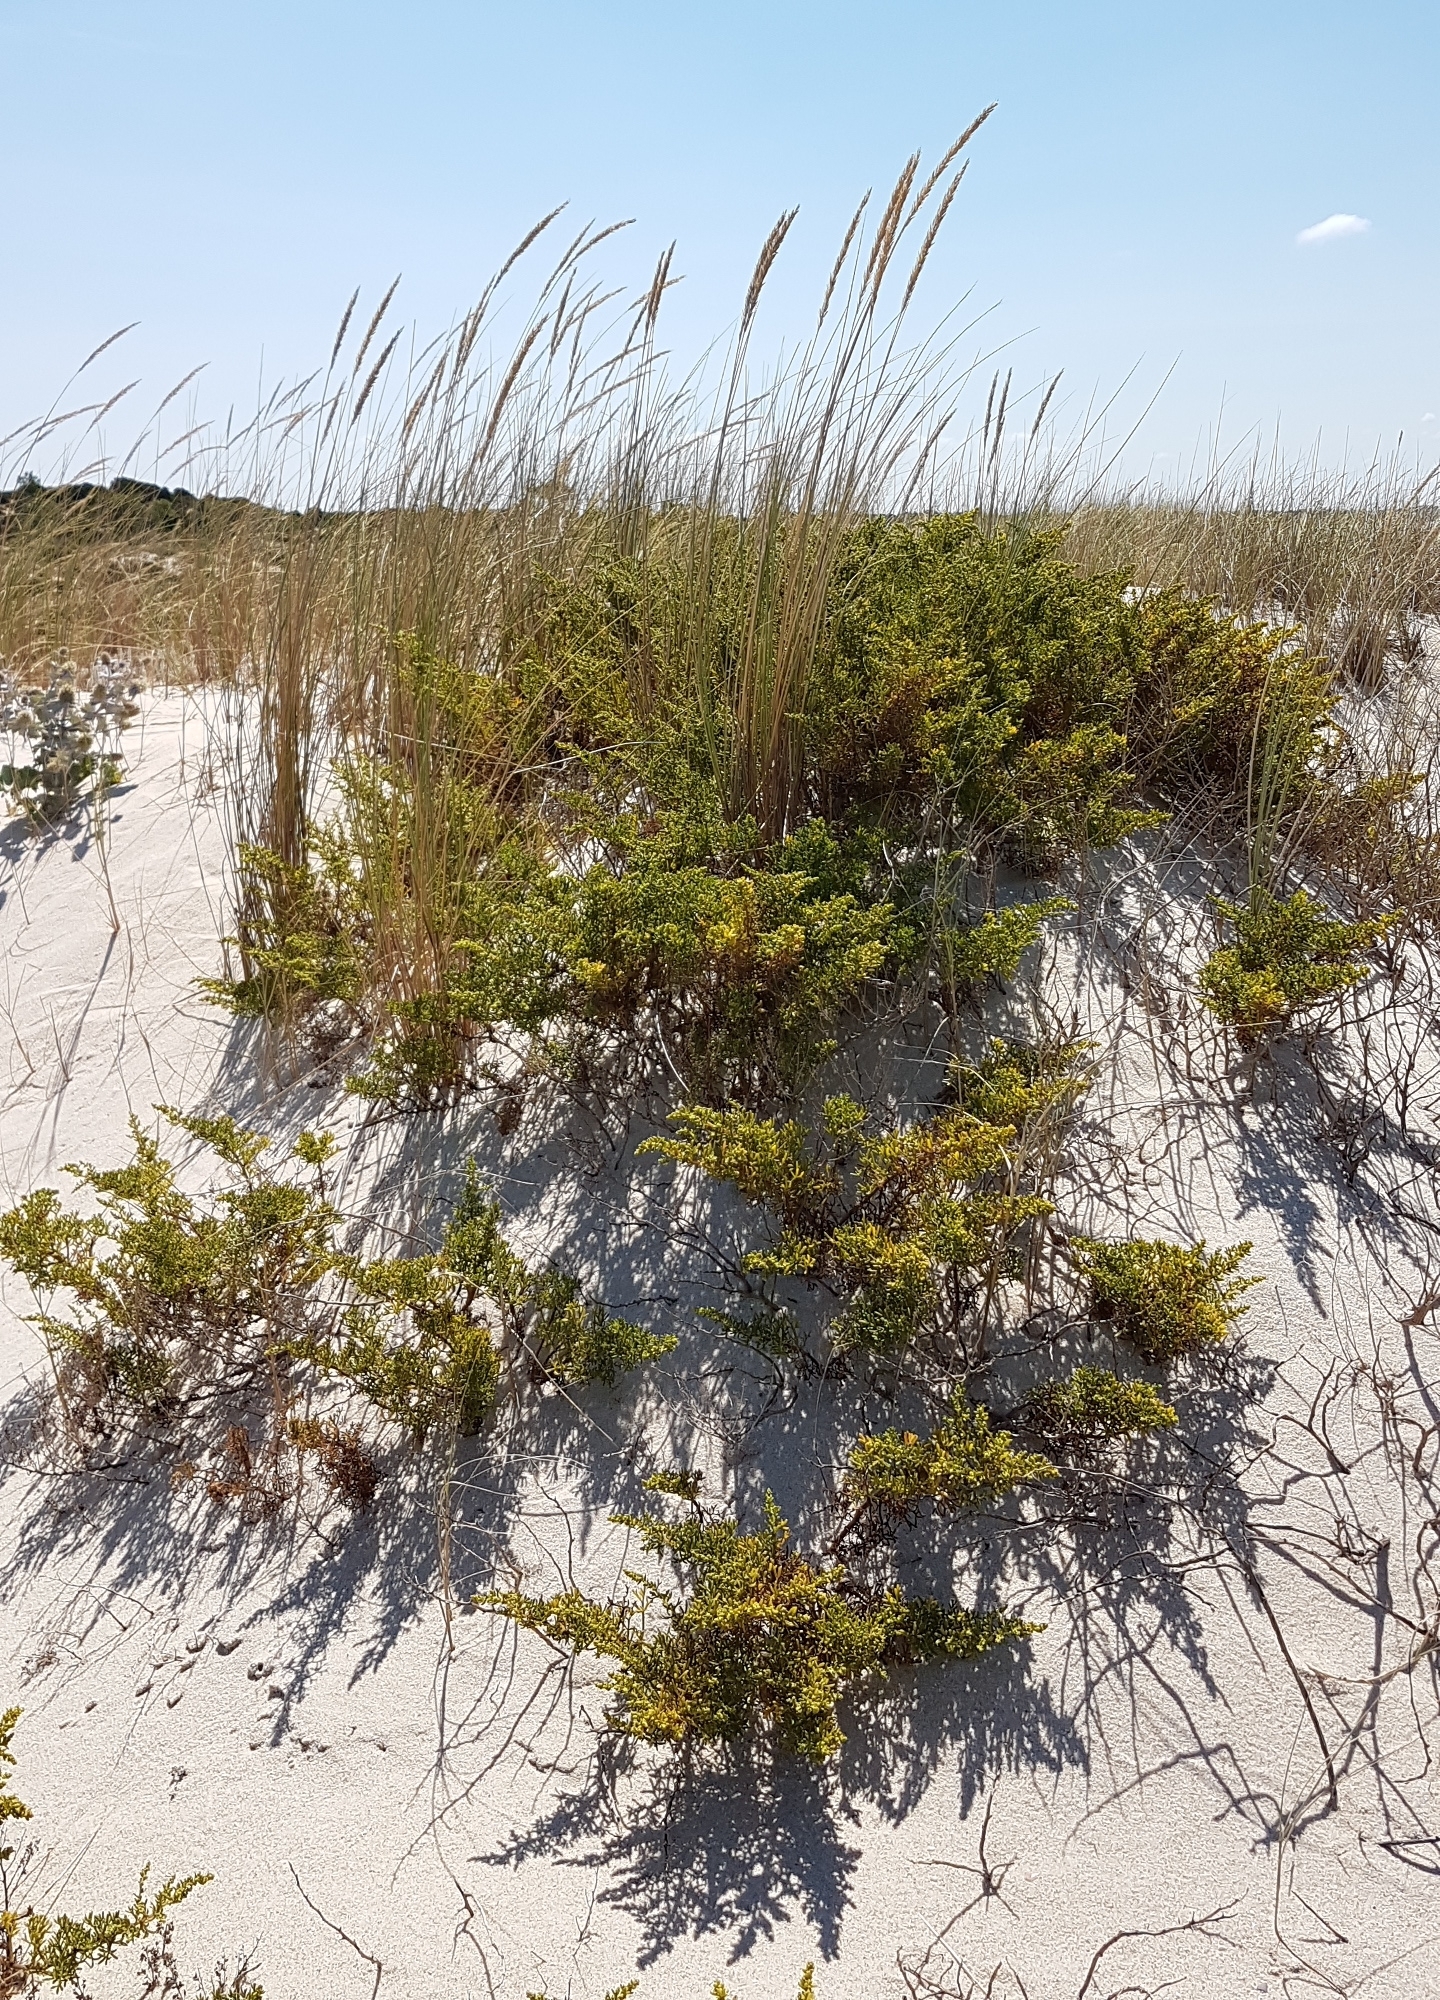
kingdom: Plantae
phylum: Tracheophyta
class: Liliopsida
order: Poales
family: Poaceae
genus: Calamagrostis
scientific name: Calamagrostis arenaria
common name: European beachgrass
